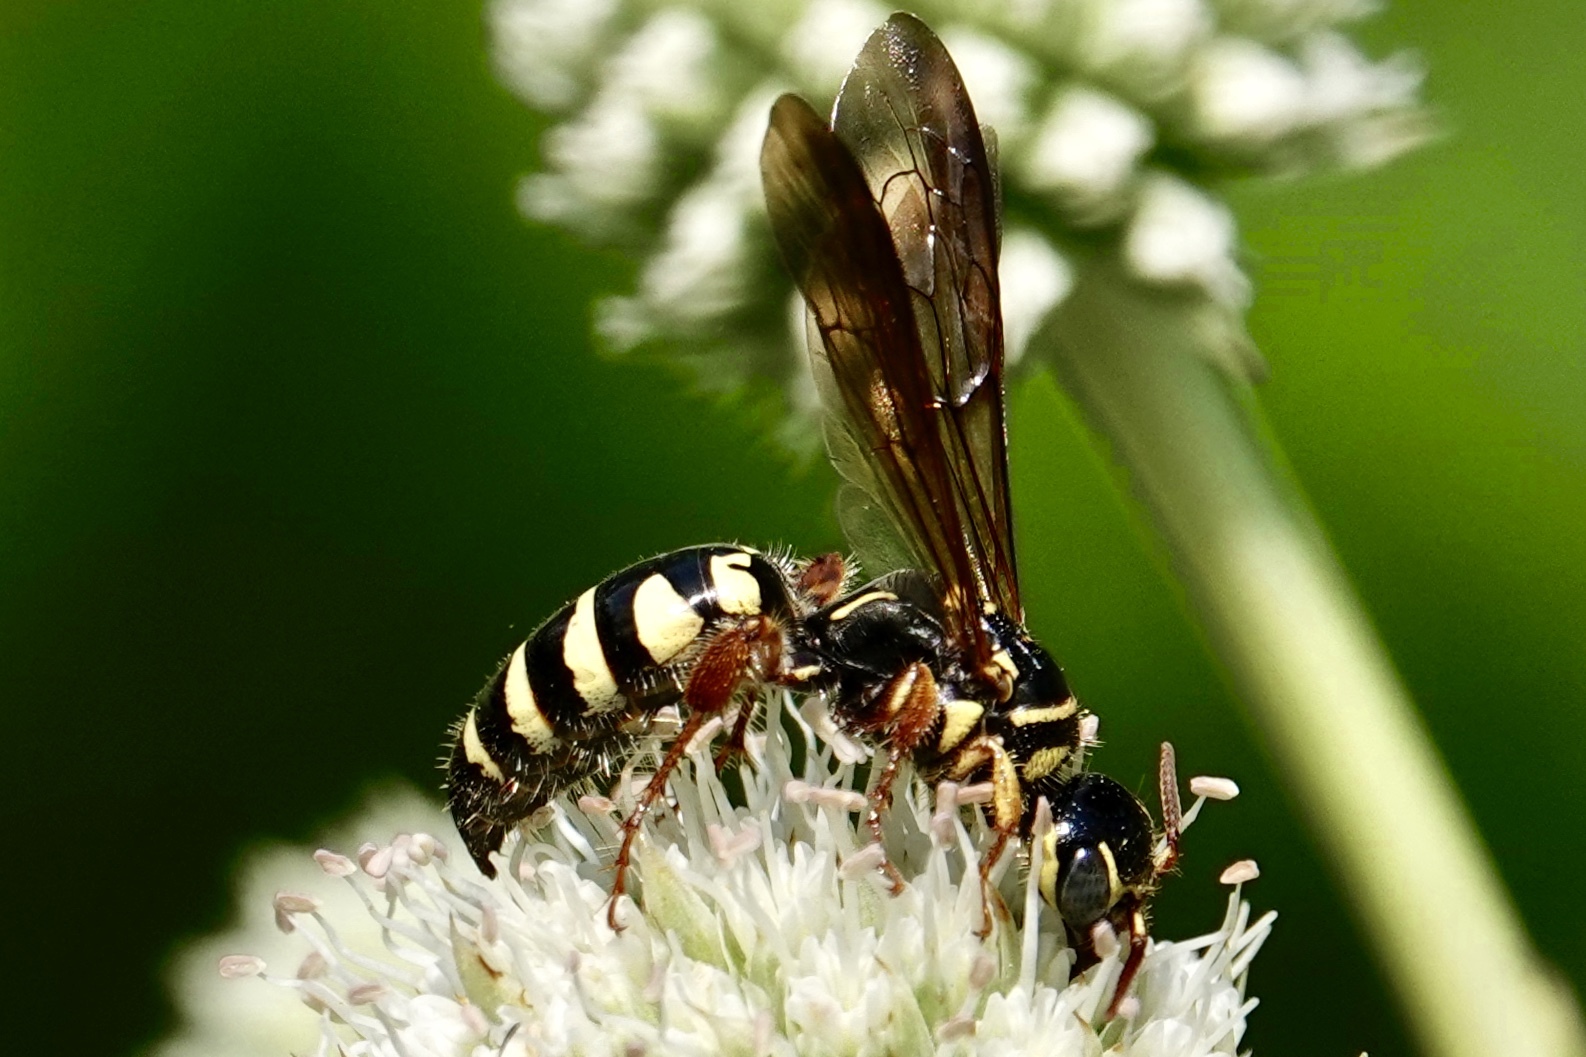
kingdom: Animalia
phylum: Arthropoda
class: Insecta
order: Hymenoptera
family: Tiphiidae
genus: Myzinum
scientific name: Myzinum quinquecinctum
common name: Five-banded thynnid wasp
